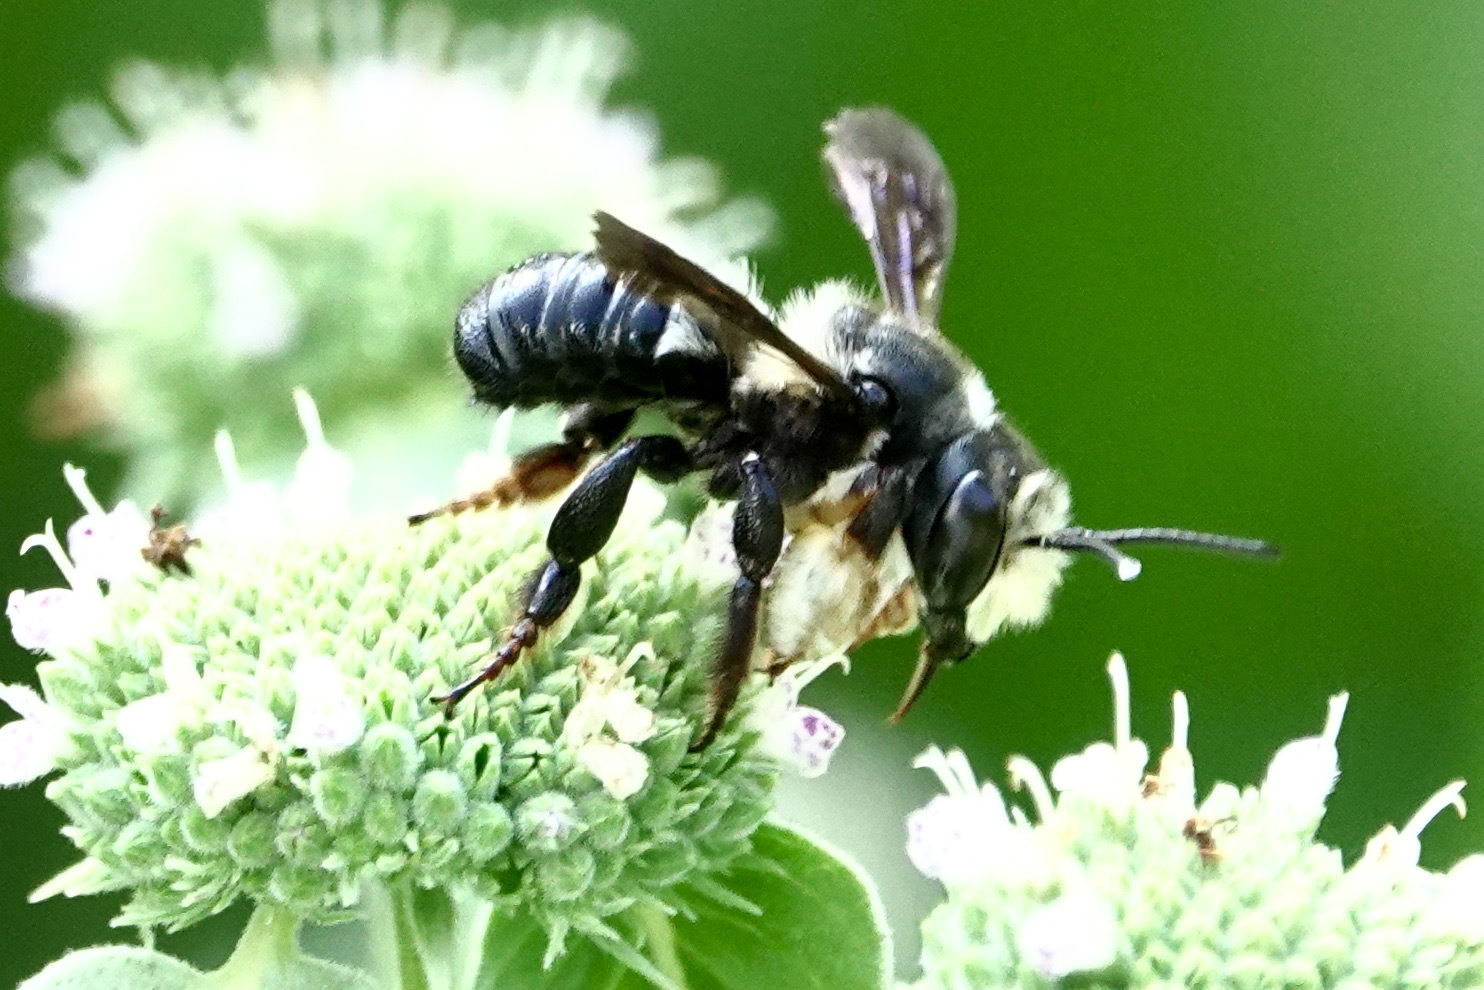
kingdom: Animalia
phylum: Arthropoda
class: Insecta
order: Hymenoptera
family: Megachilidae
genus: Megachile
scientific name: Megachile xylocopoides
